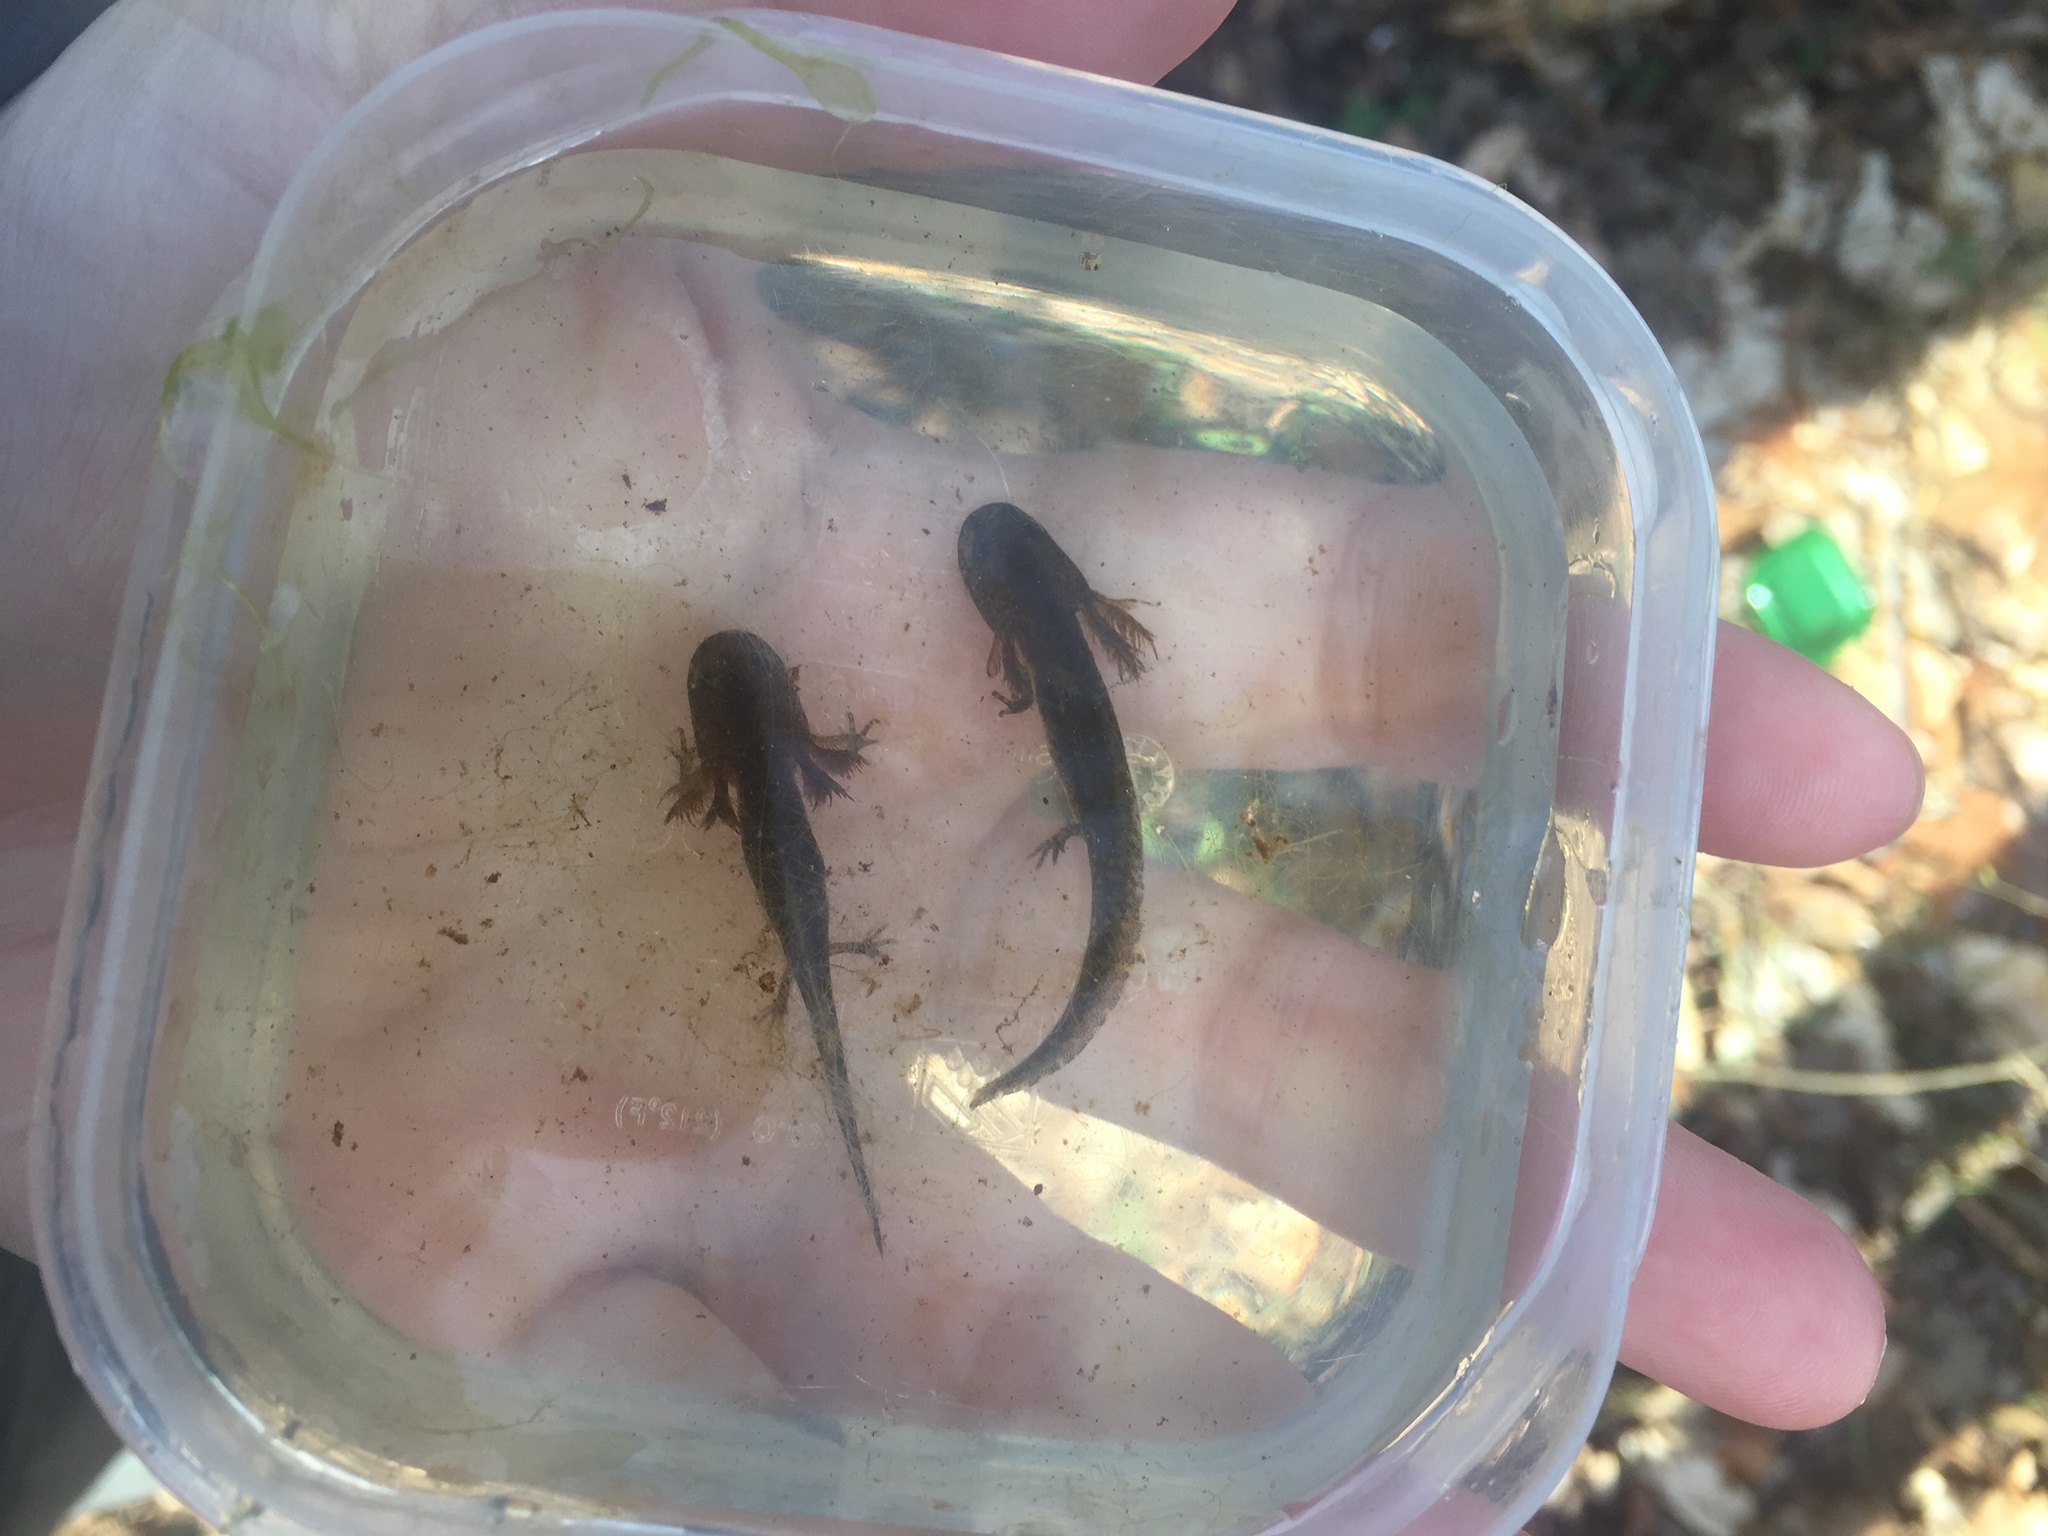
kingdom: Animalia
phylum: Chordata
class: Amphibia
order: Caudata
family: Ambystomatidae
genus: Ambystoma
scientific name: Ambystoma opacum
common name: Marbled salamander
